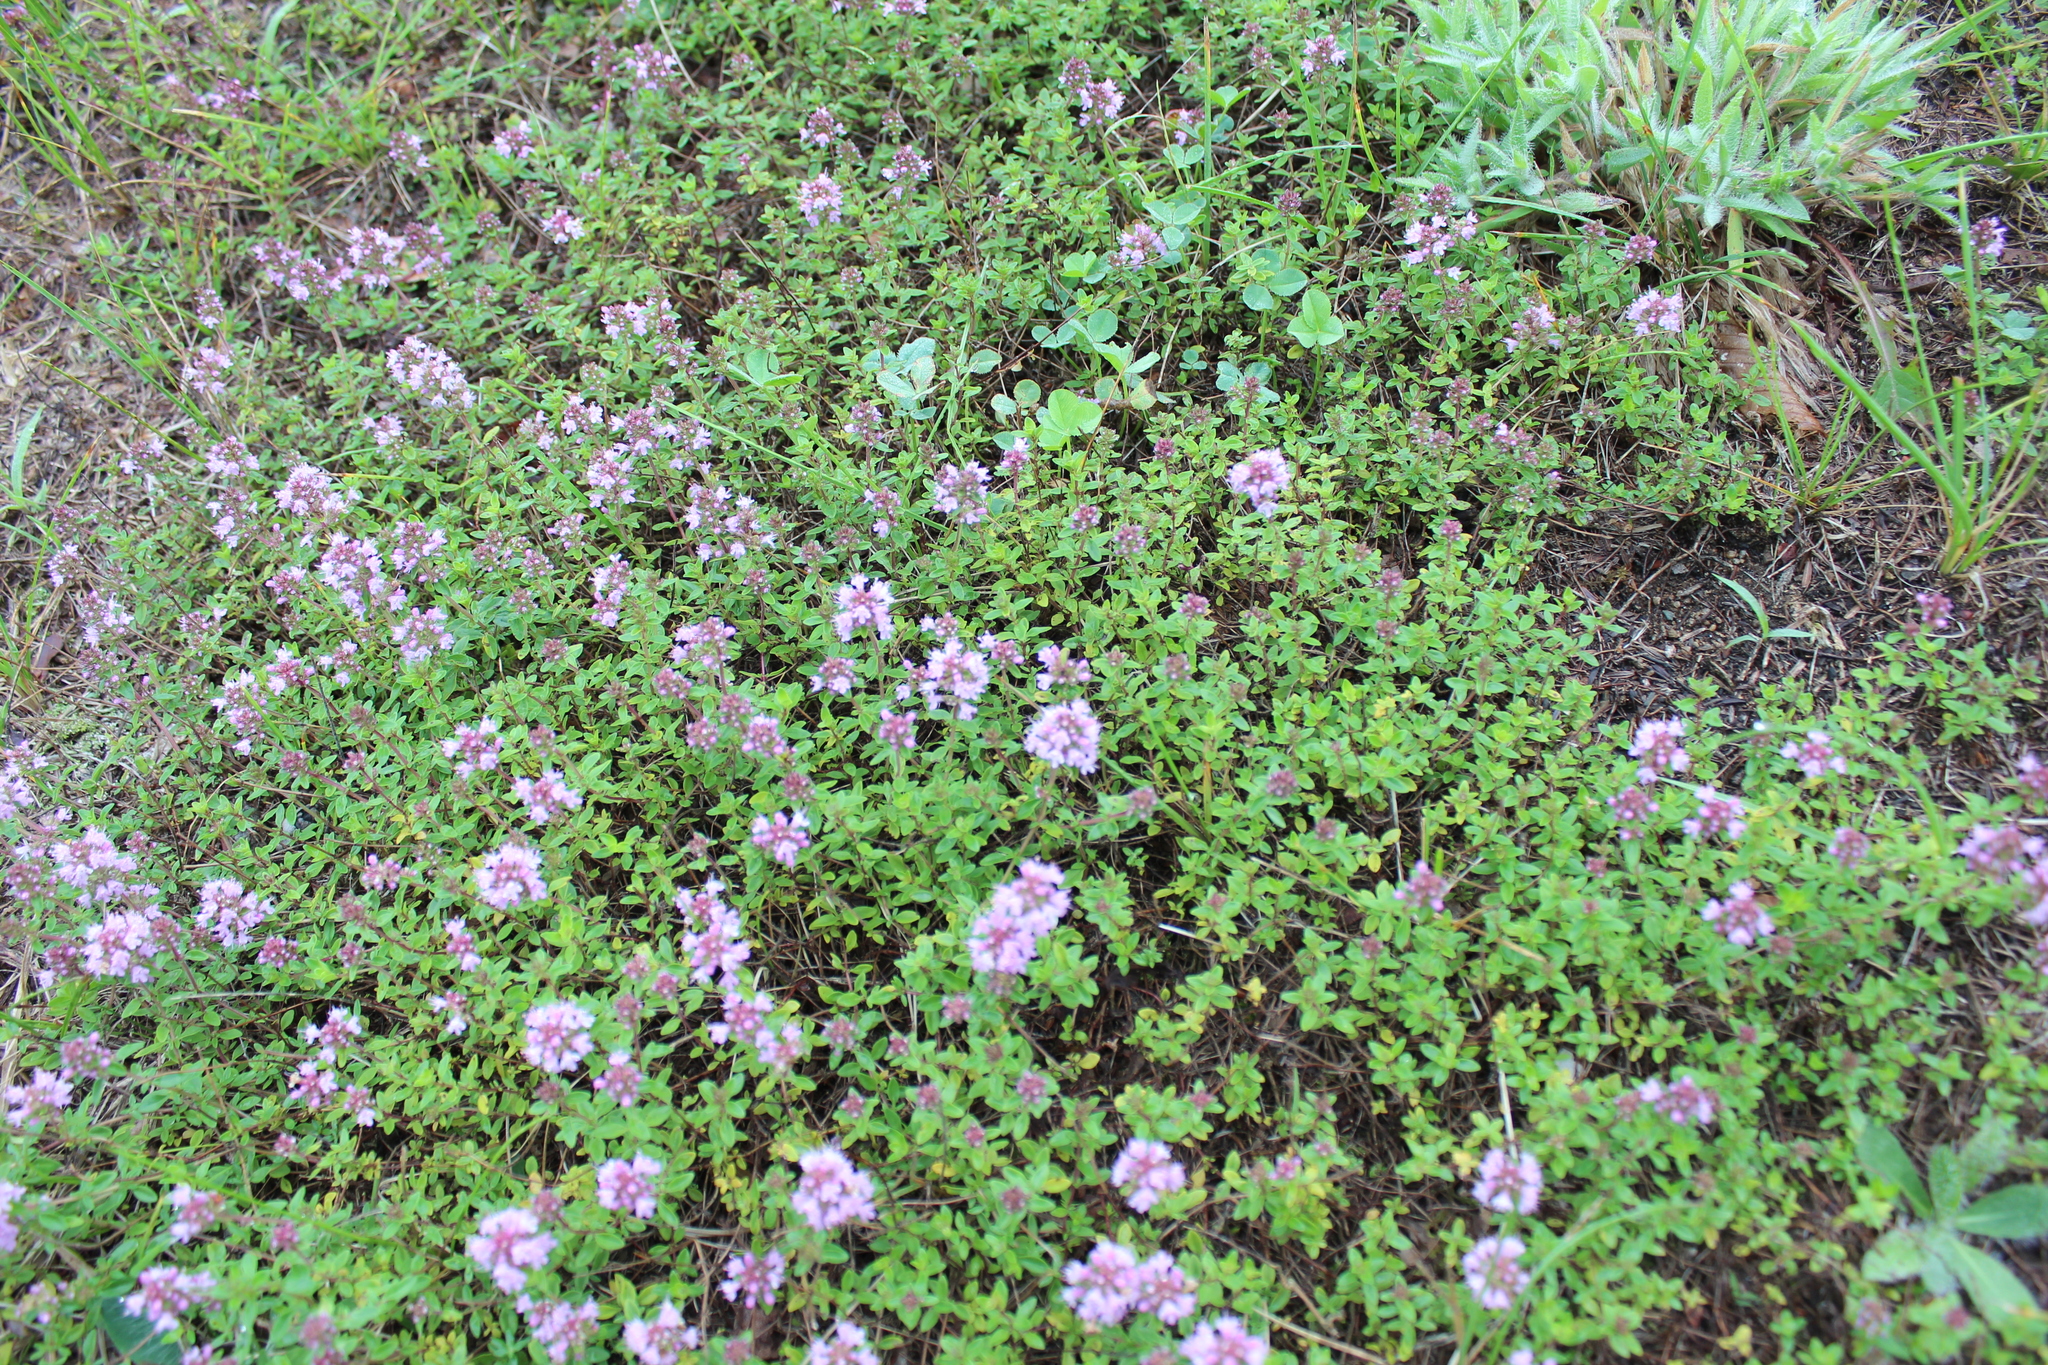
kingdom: Plantae
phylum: Tracheophyta
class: Magnoliopsida
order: Lamiales
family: Lamiaceae
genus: Thymus
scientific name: Thymus pulegioides
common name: Large thyme
